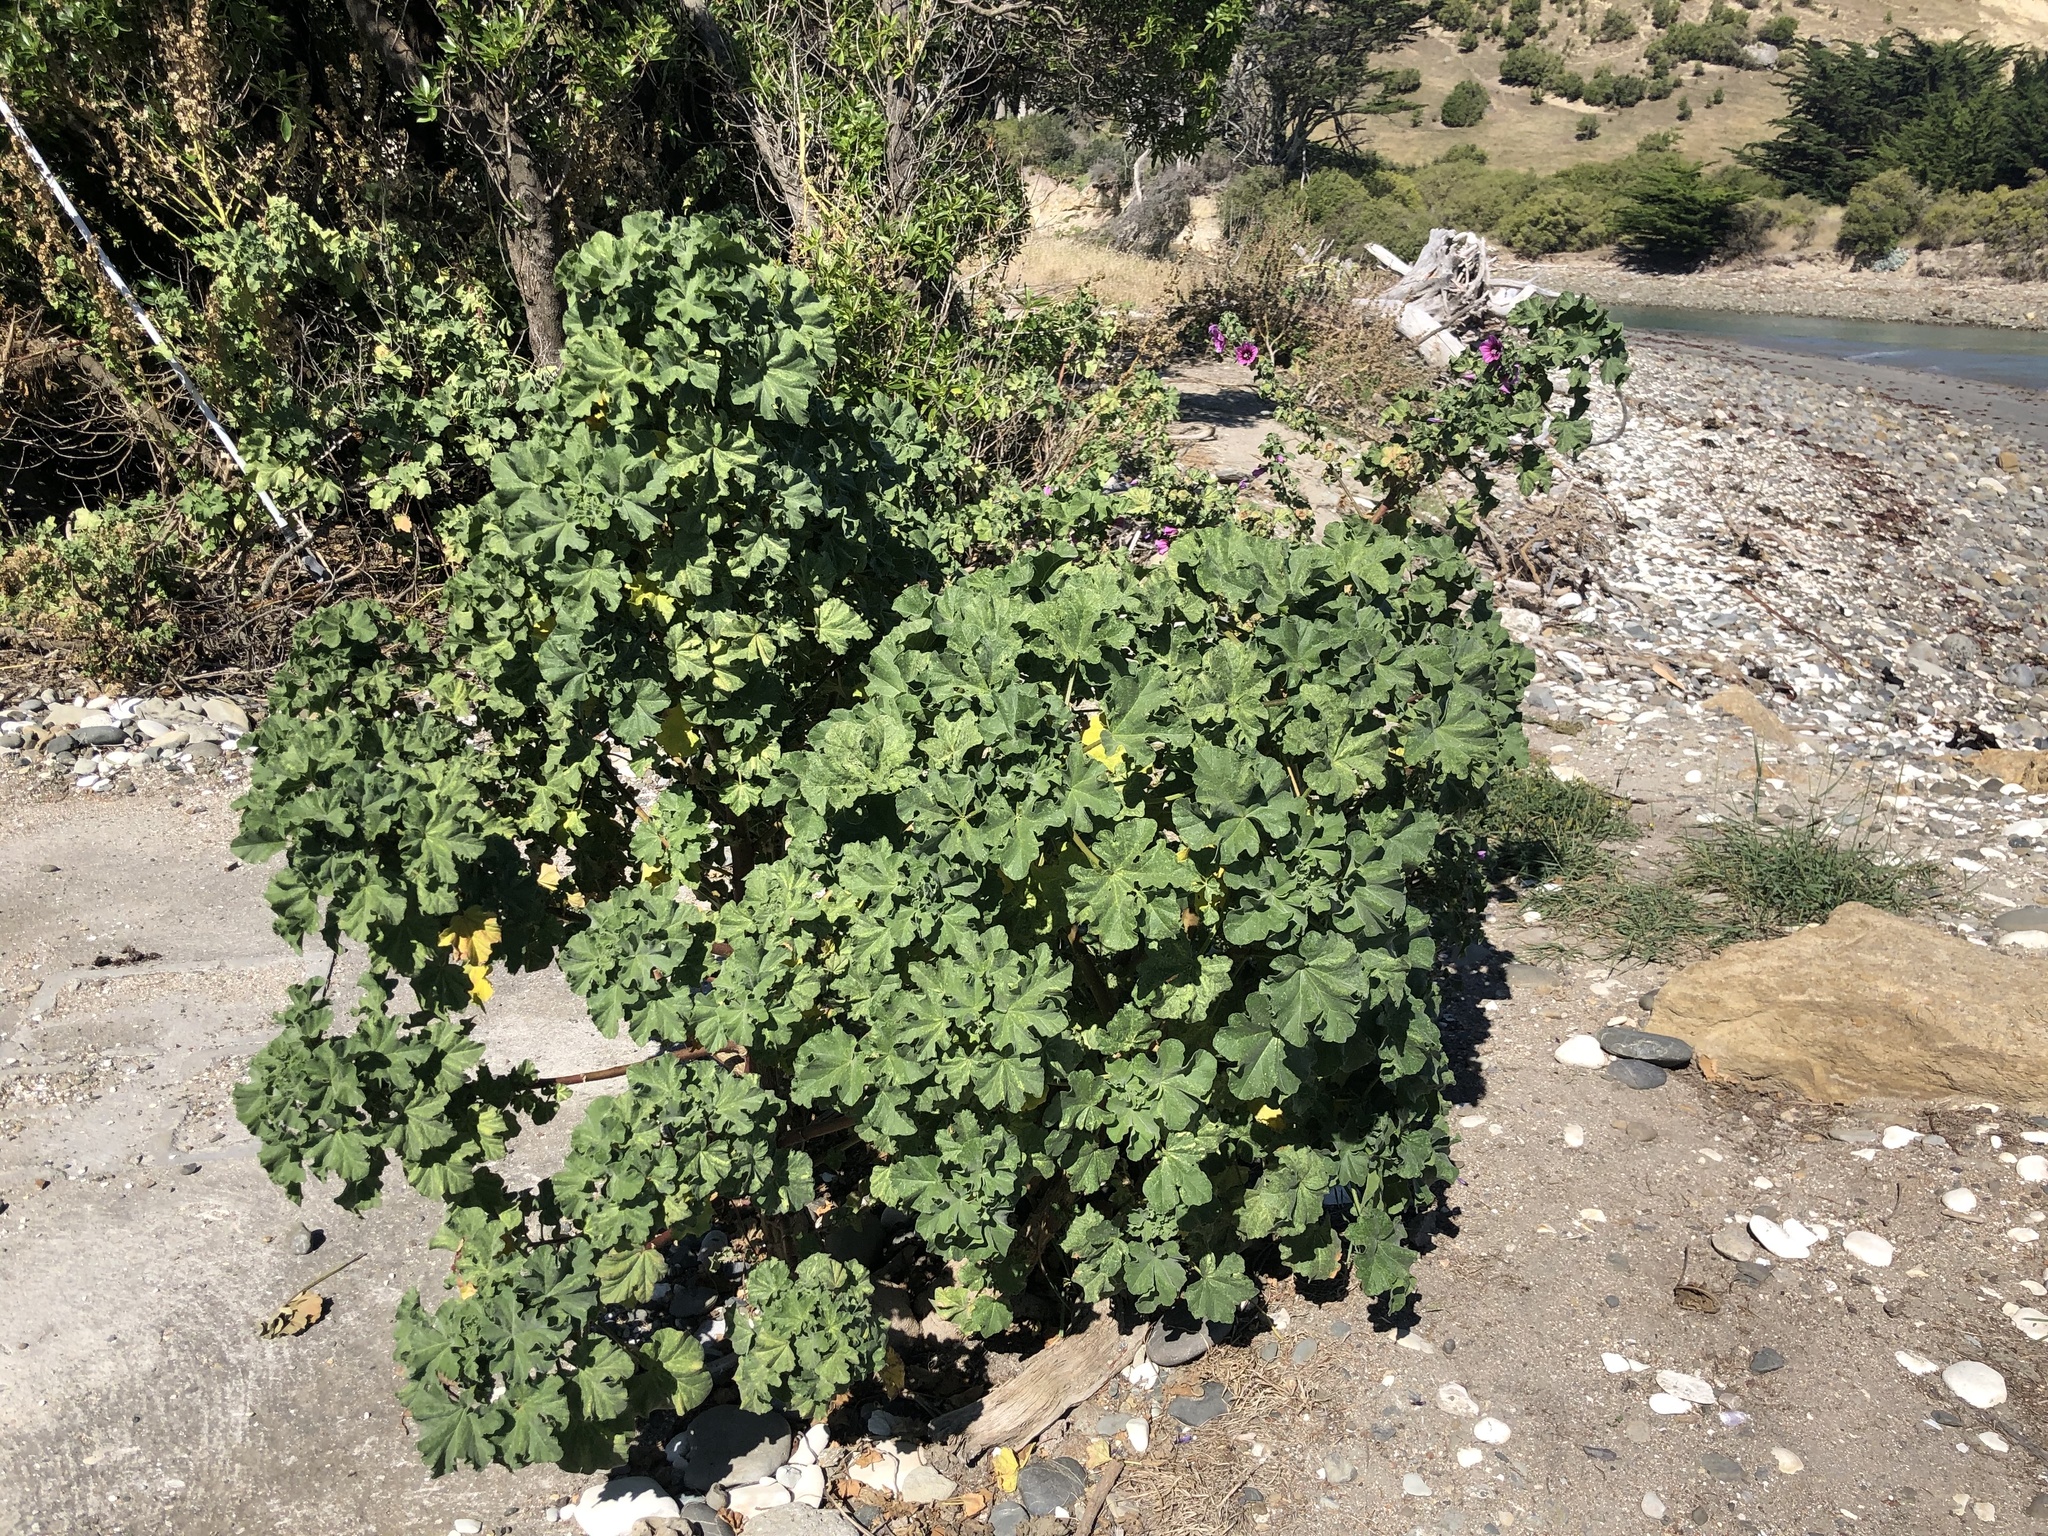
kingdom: Plantae
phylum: Tracheophyta
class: Magnoliopsida
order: Malvales
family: Malvaceae
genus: Malva
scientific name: Malva arborea
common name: Tree mallow
